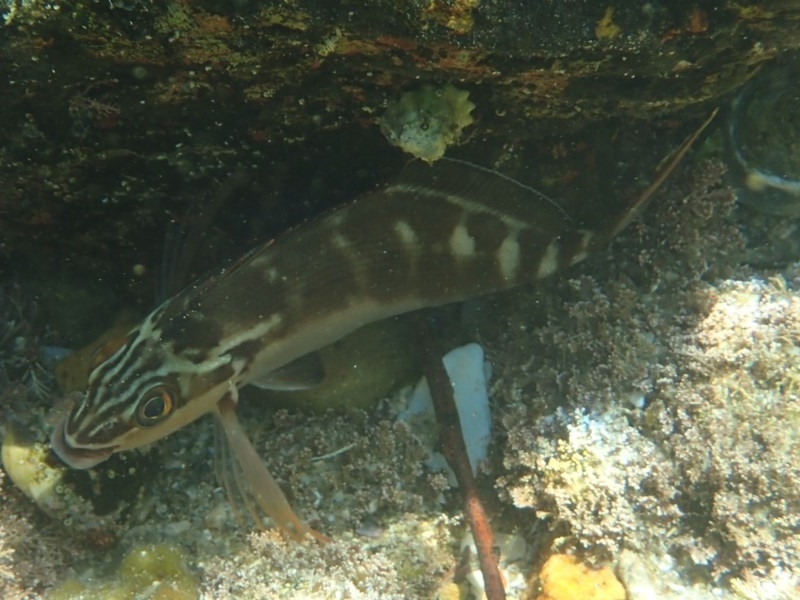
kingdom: Animalia
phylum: Chordata
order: Perciformes
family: Latridae
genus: Morwong
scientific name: Morwong fuscus
